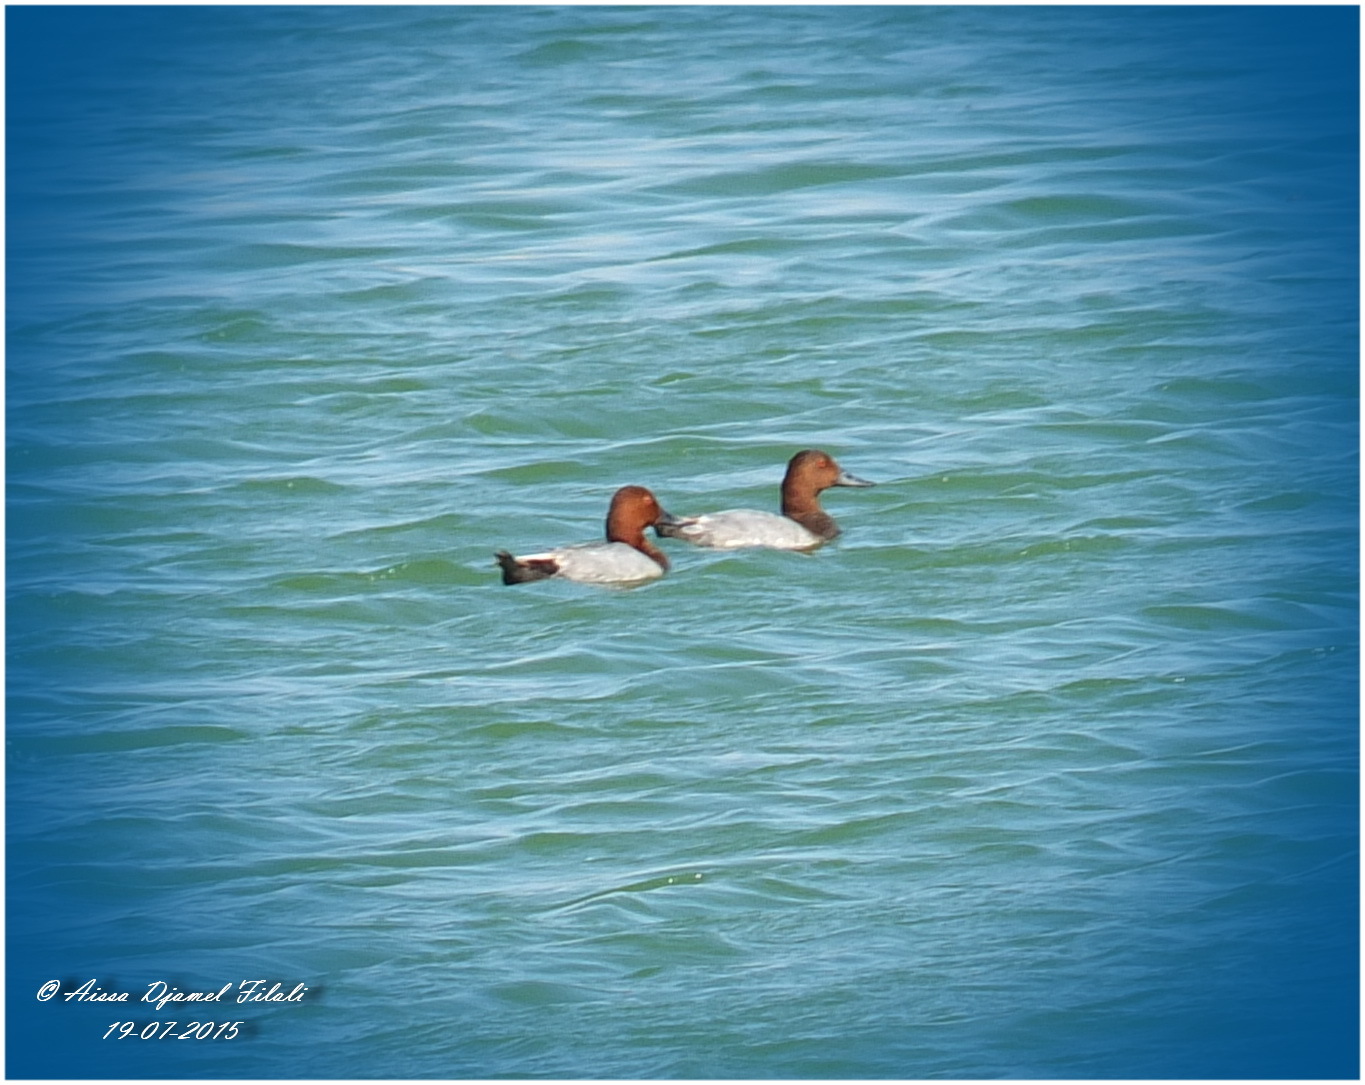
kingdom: Animalia
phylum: Chordata
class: Aves
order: Anseriformes
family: Anatidae
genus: Aythya
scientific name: Aythya ferina
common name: Common pochard
